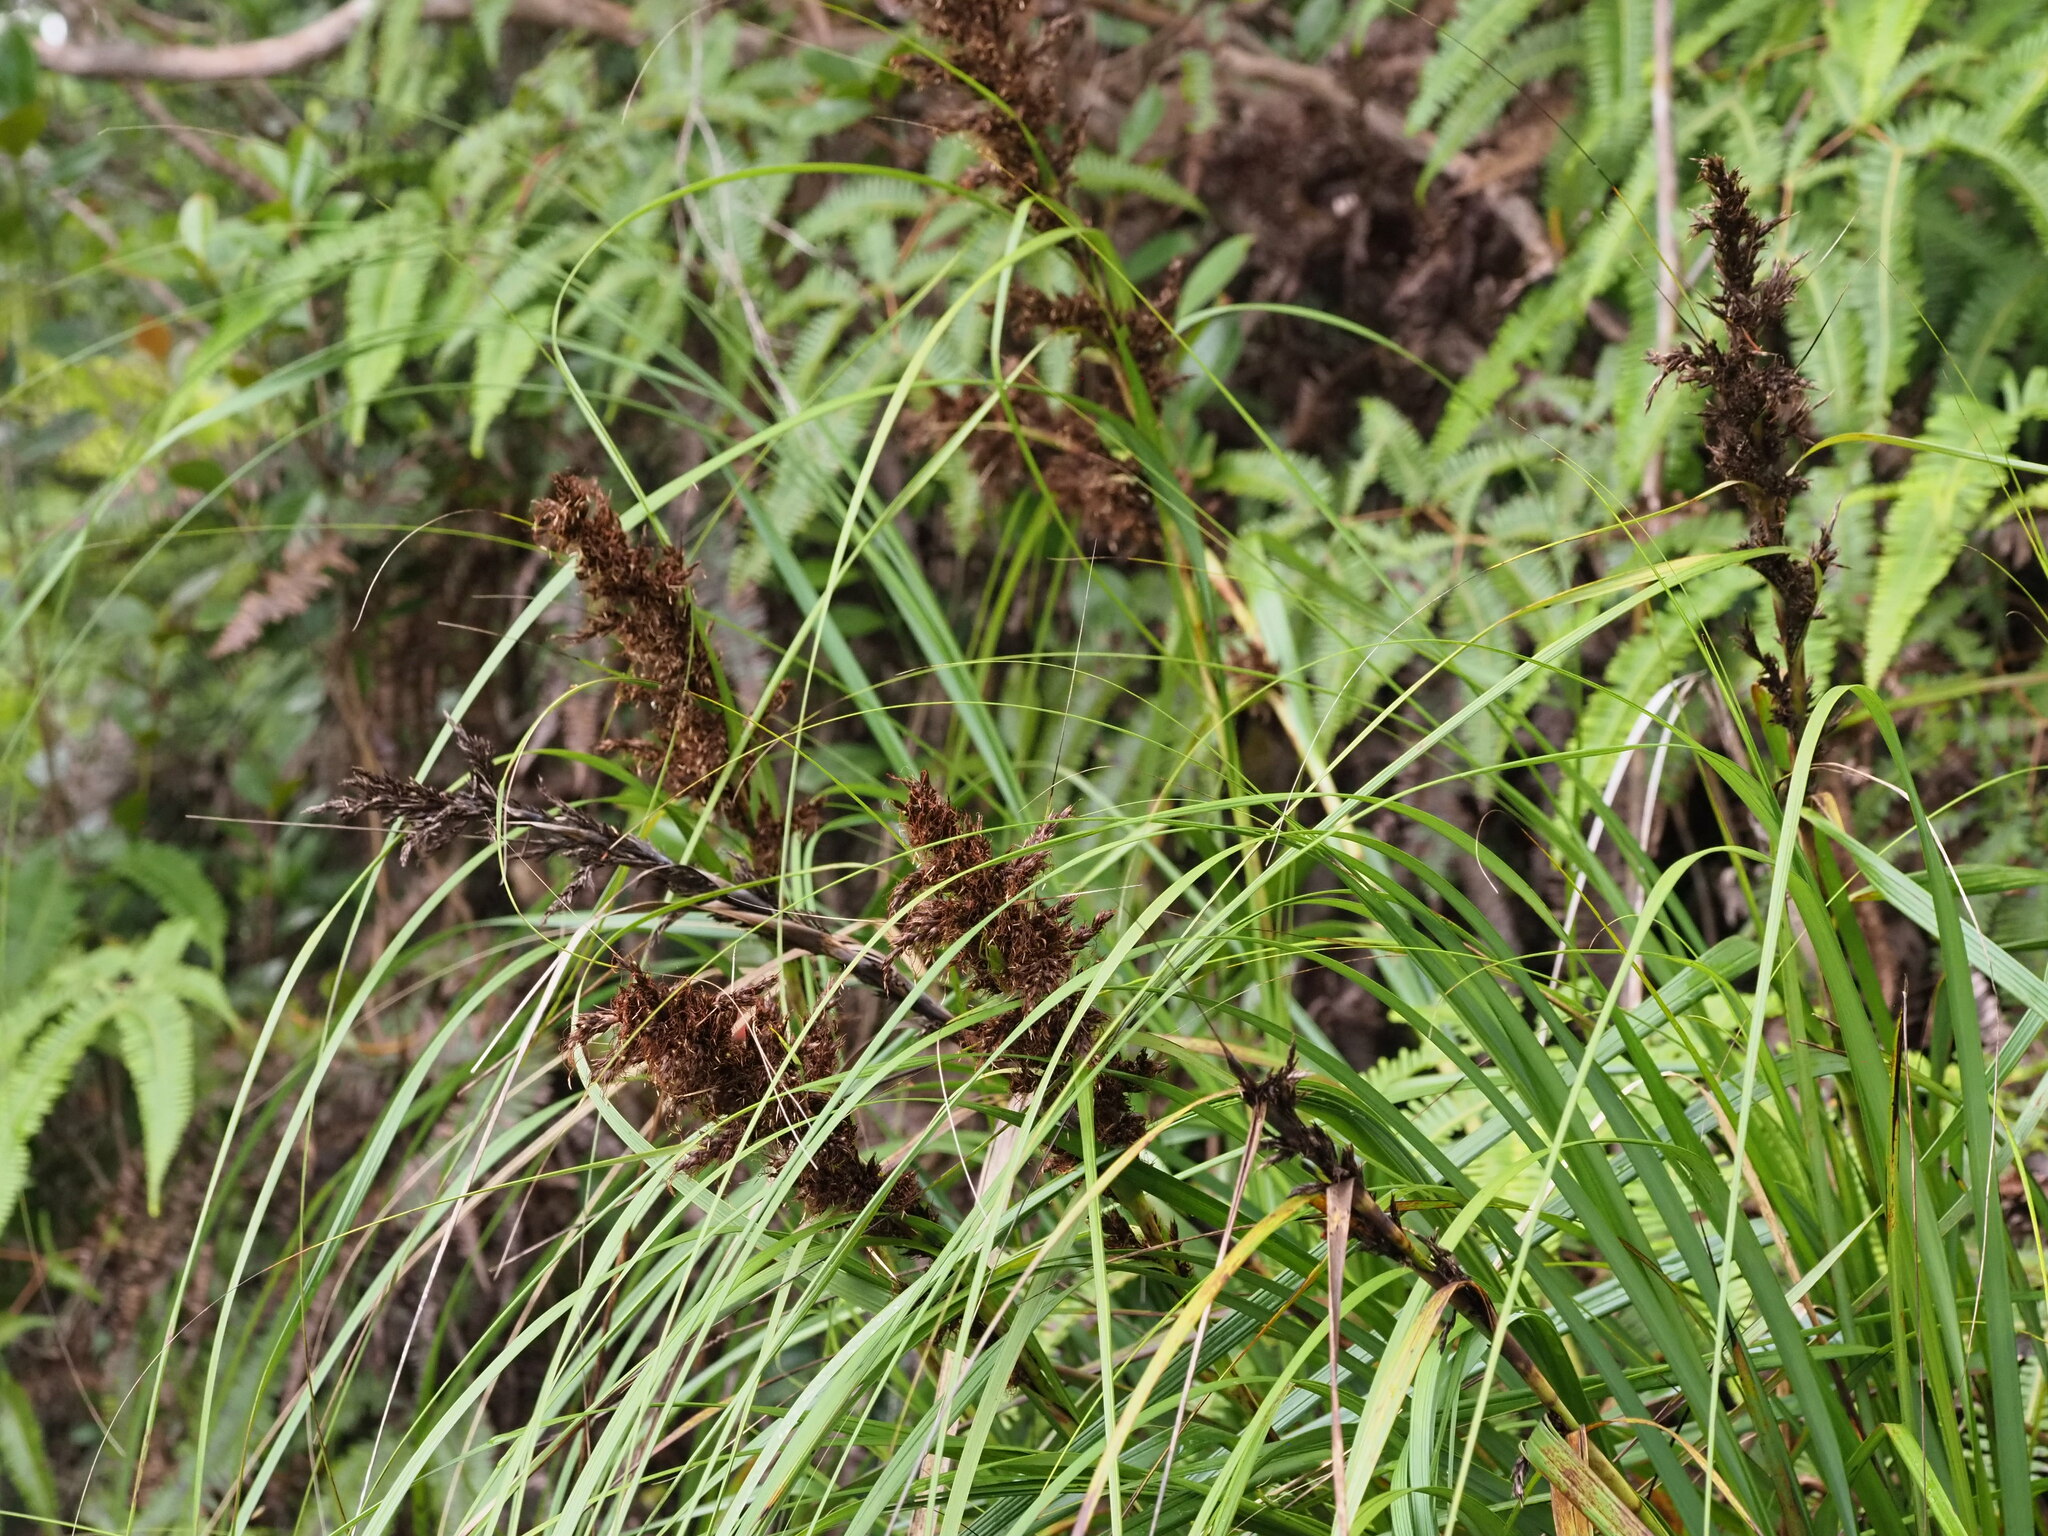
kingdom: Plantae
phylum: Tracheophyta
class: Liliopsida
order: Poales
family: Cyperaceae
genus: Gahnia
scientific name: Gahnia beecheyi
